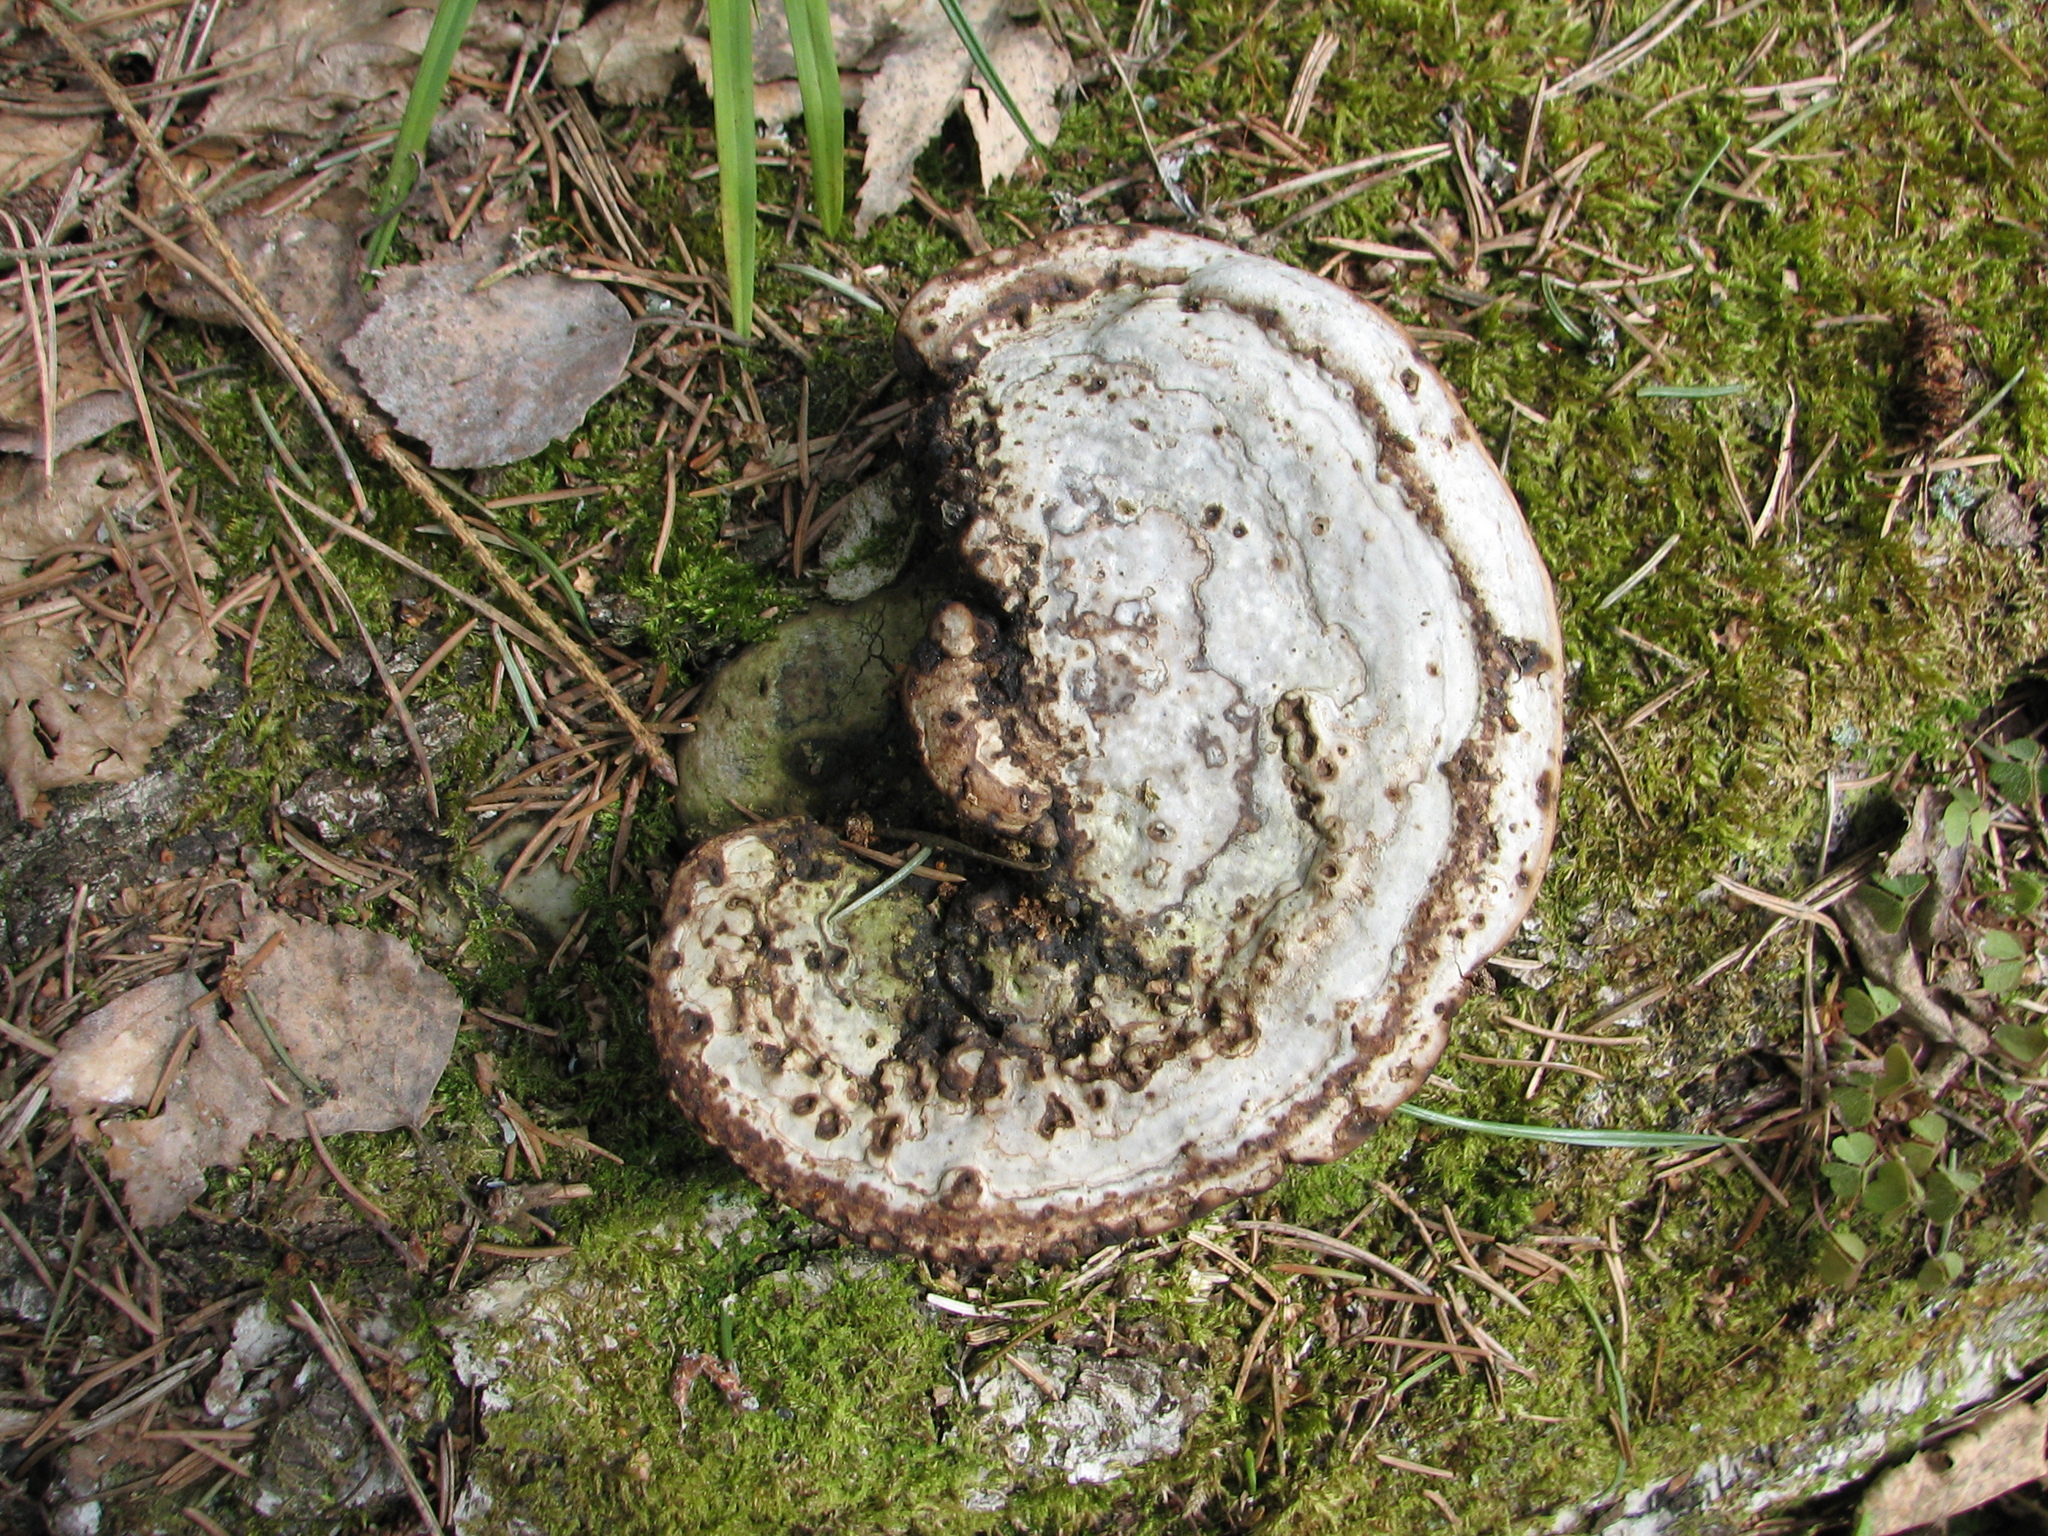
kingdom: Fungi
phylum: Basidiomycota
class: Agaricomycetes
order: Polyporales
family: Polyporaceae
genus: Fomes
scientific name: Fomes fomentarius
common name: Hoof fungus
